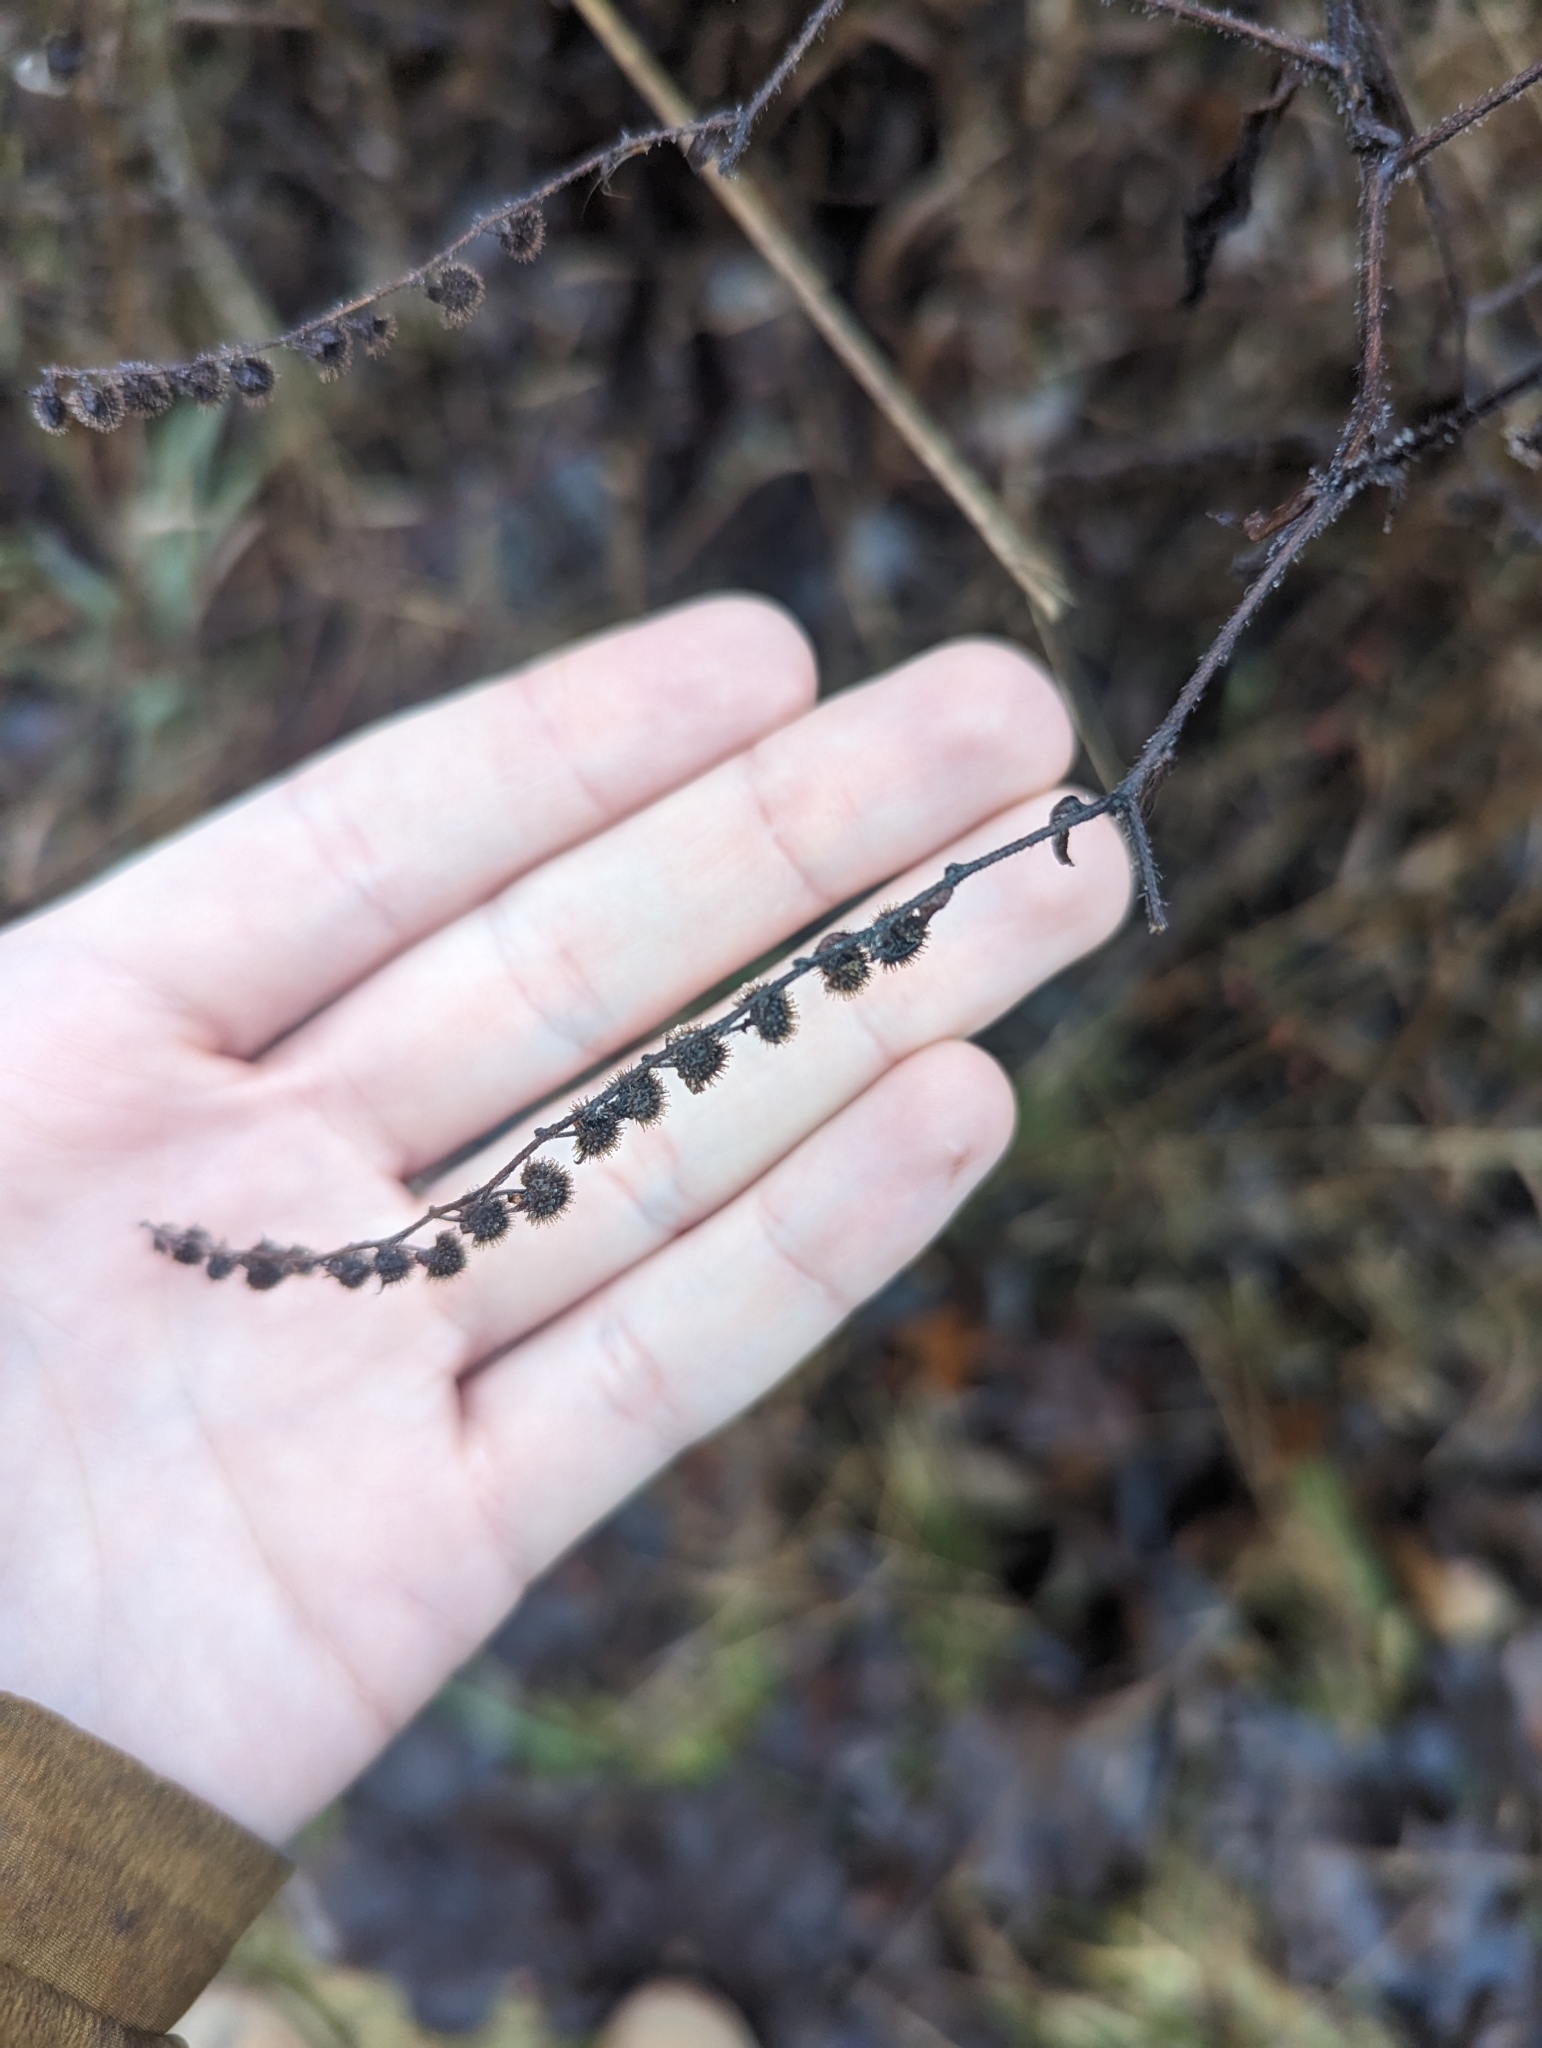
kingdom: Plantae
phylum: Tracheophyta
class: Magnoliopsida
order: Boraginales
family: Boraginaceae
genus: Hackelia
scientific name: Hackelia virginiana
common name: Beggar's-lice
